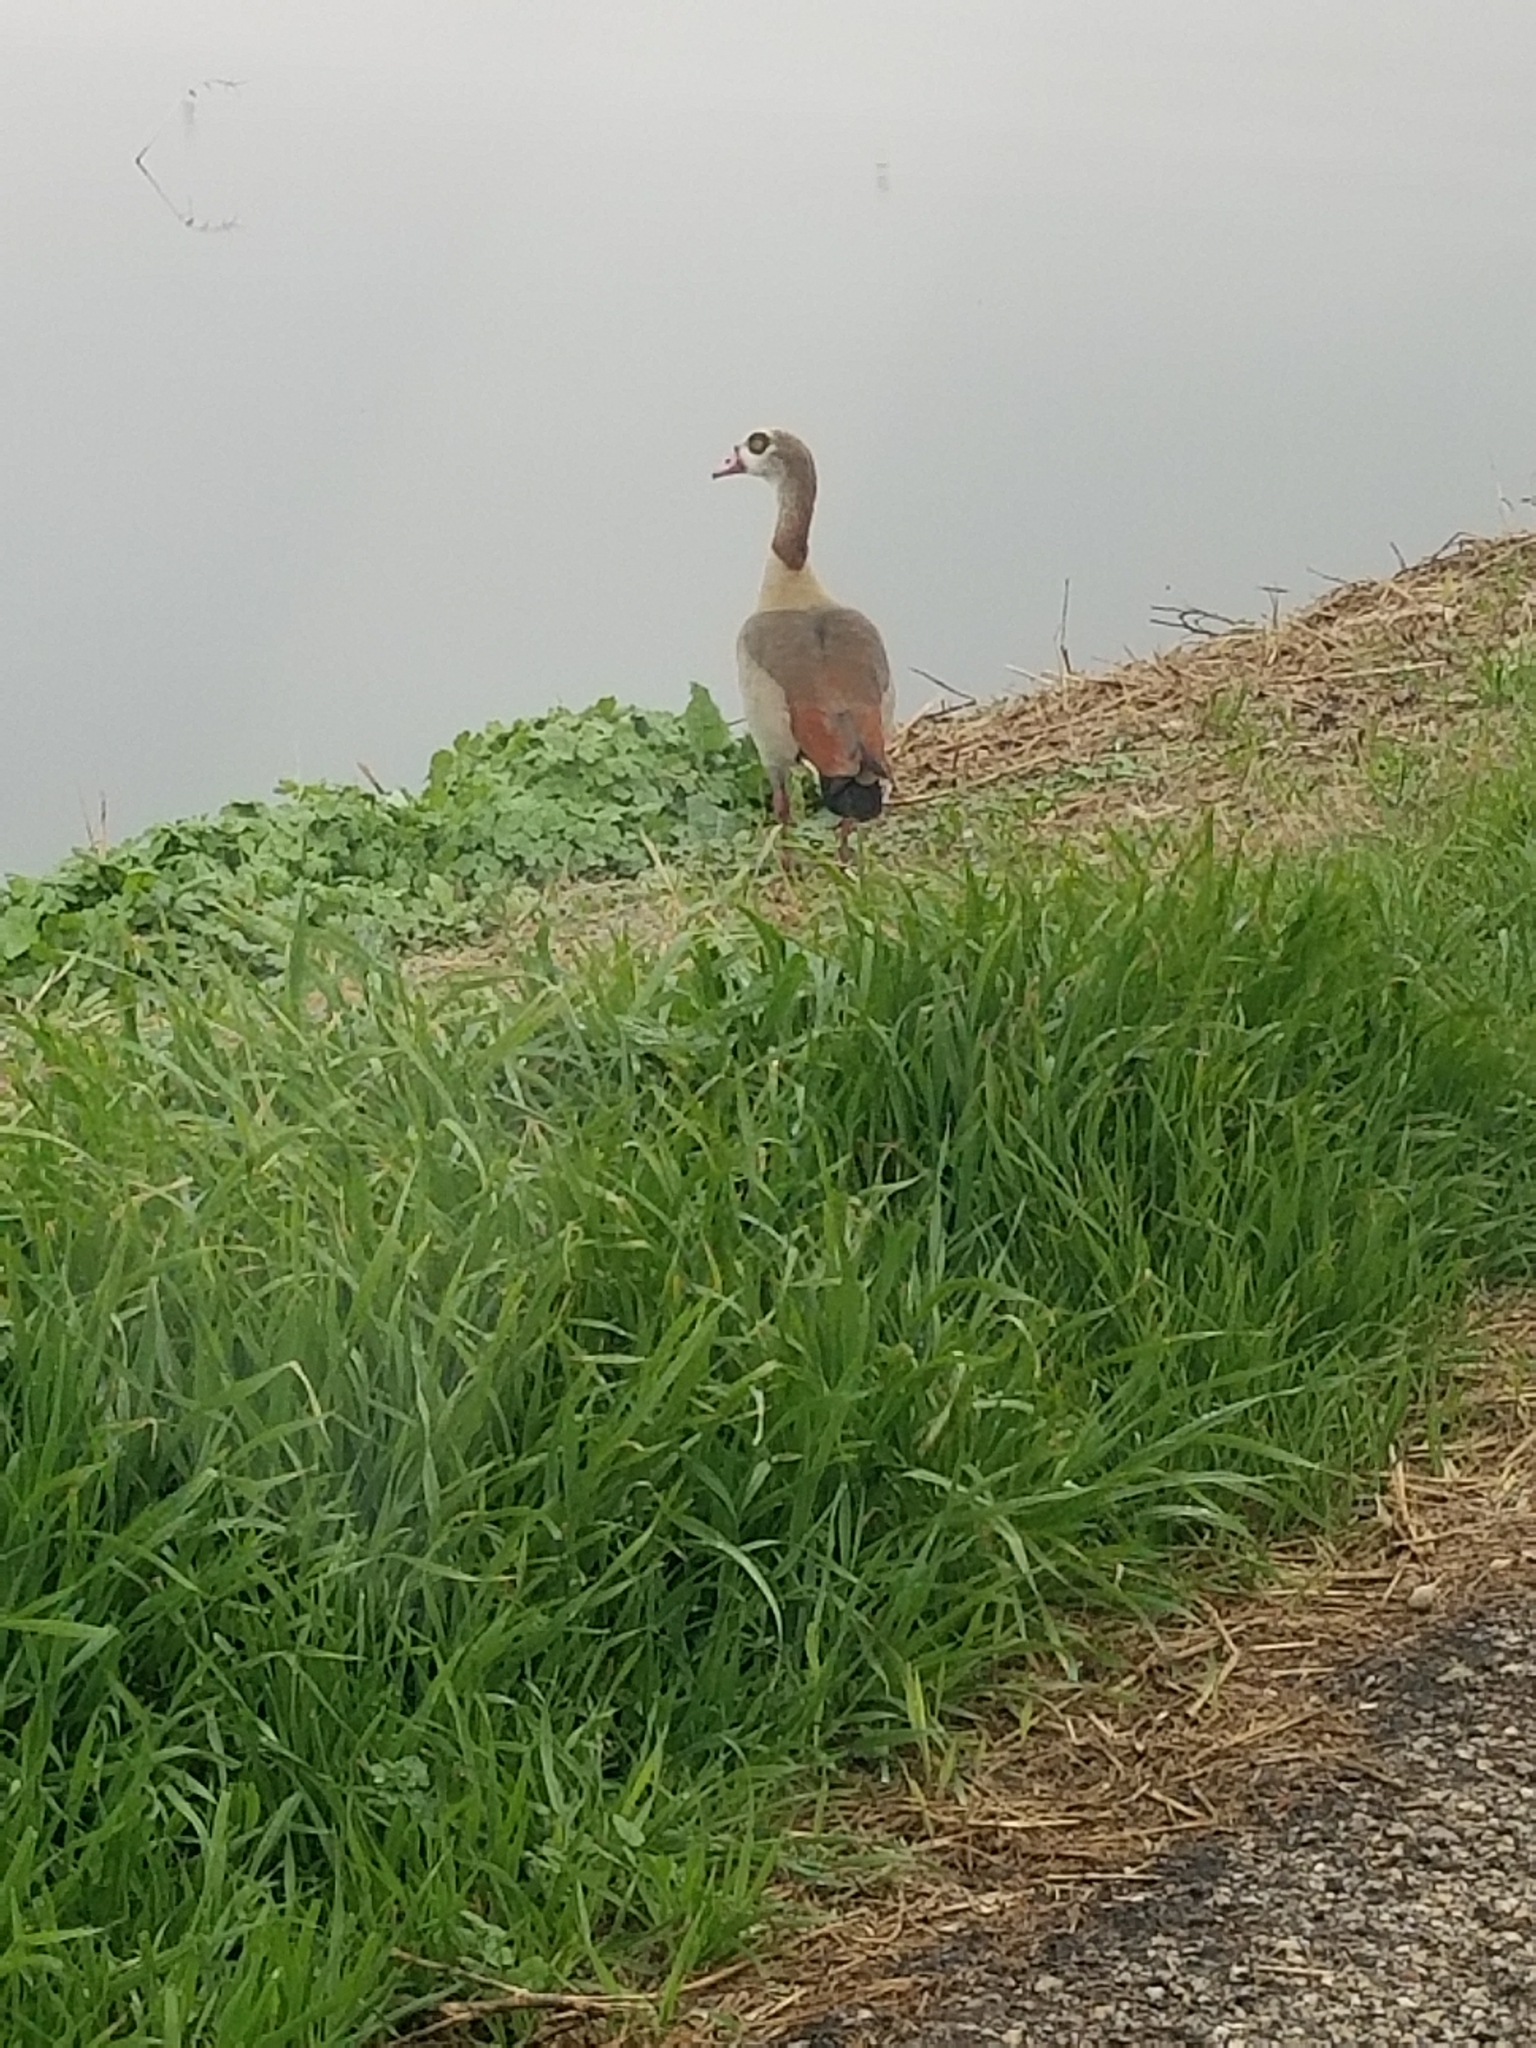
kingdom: Animalia
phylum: Chordata
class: Aves
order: Anseriformes
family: Anatidae
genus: Alopochen
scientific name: Alopochen aegyptiaca
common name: Egyptian goose
